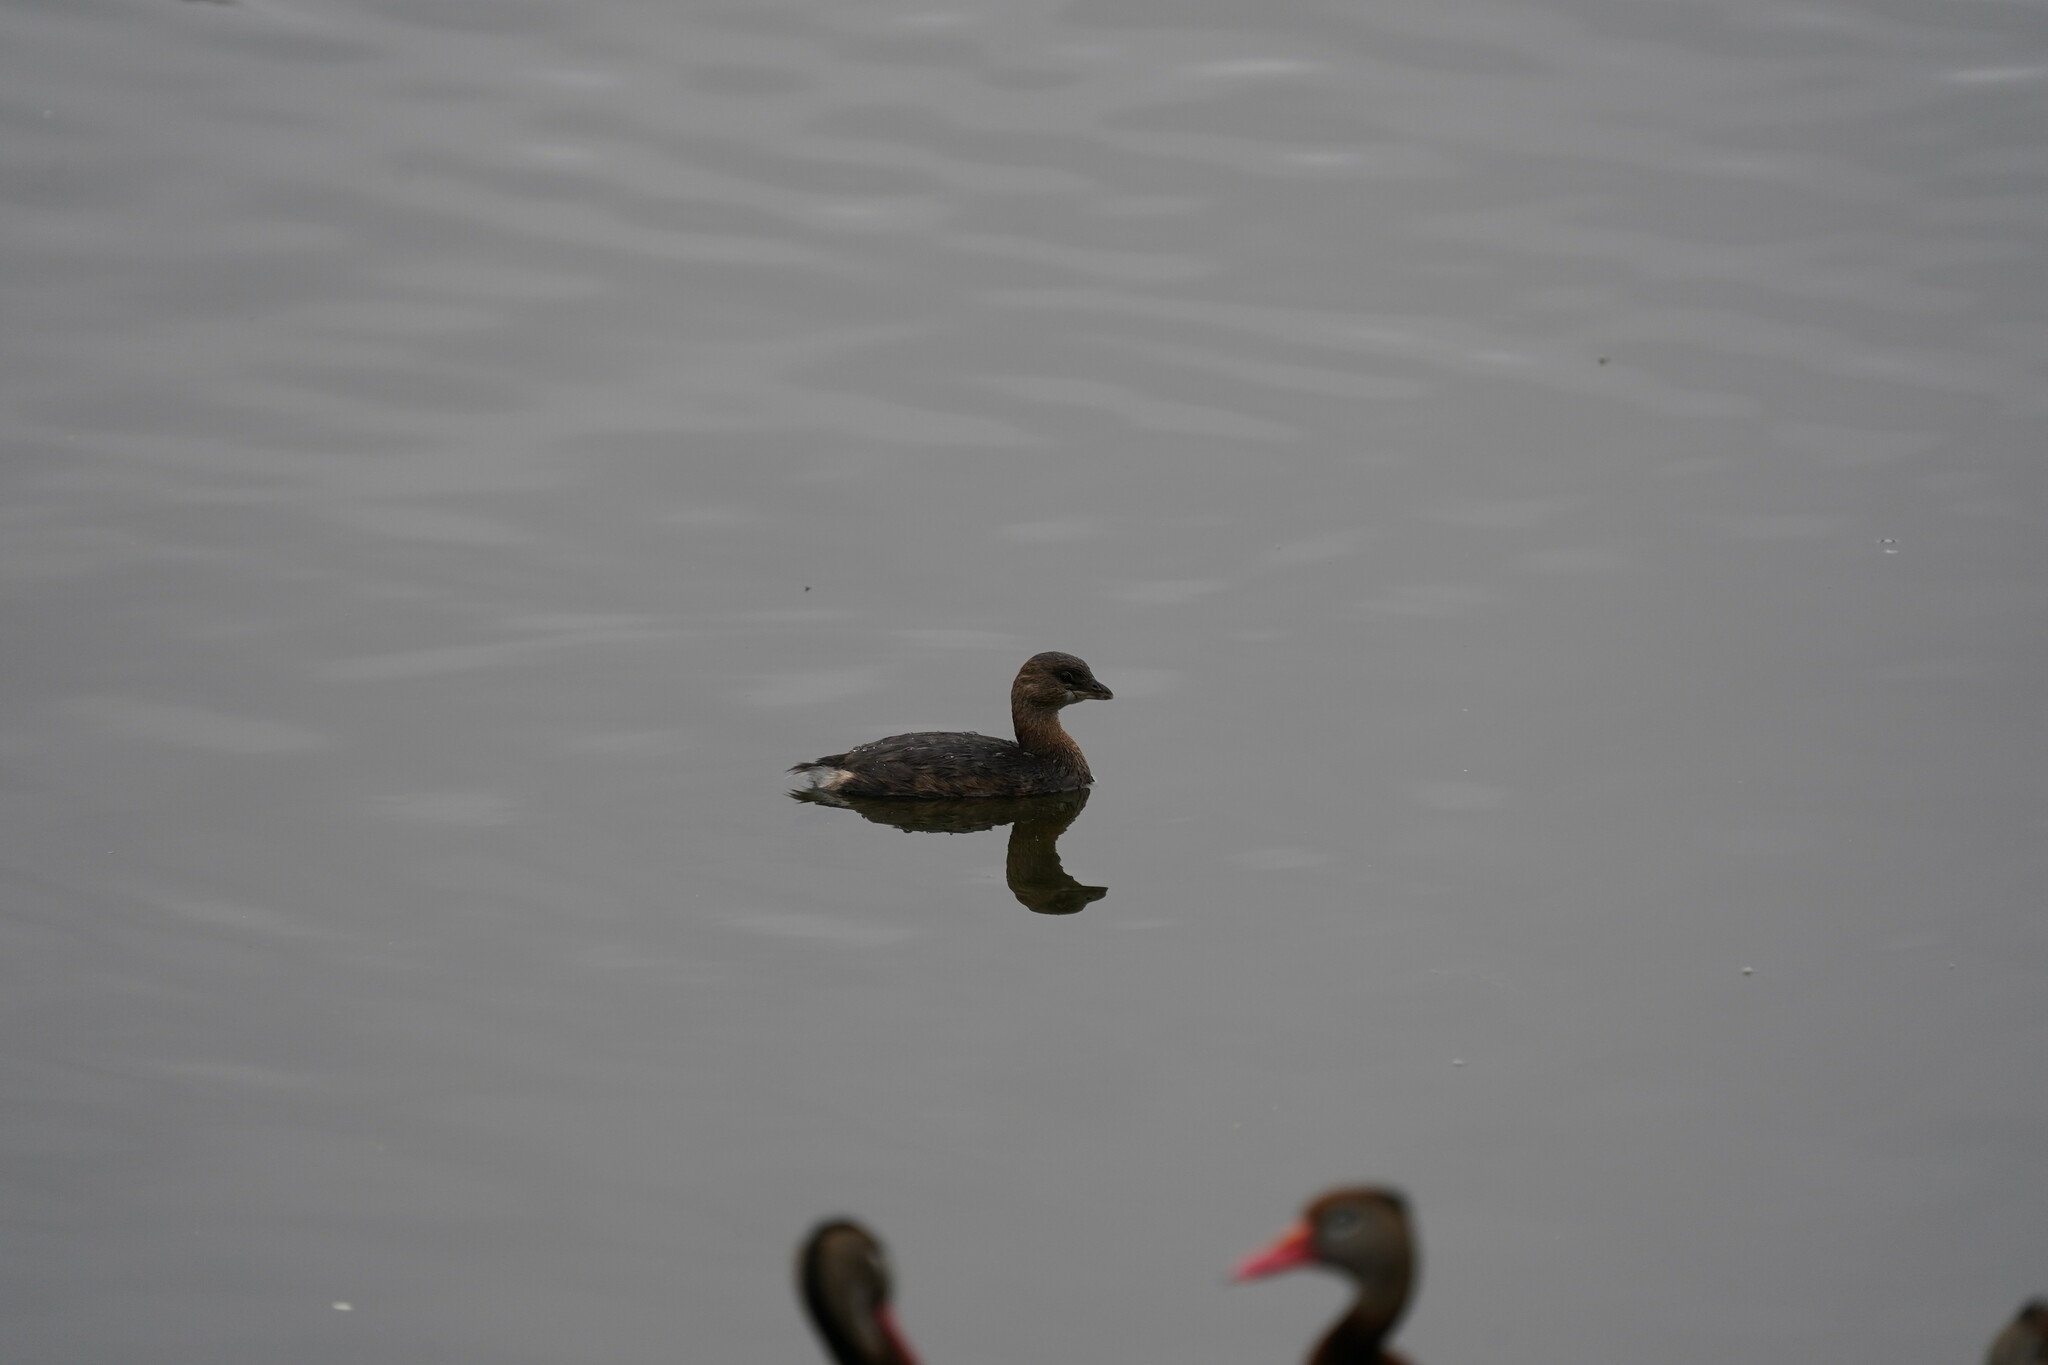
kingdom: Animalia
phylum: Chordata
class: Aves
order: Podicipediformes
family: Podicipedidae
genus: Podilymbus
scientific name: Podilymbus podiceps
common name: Pied-billed grebe
